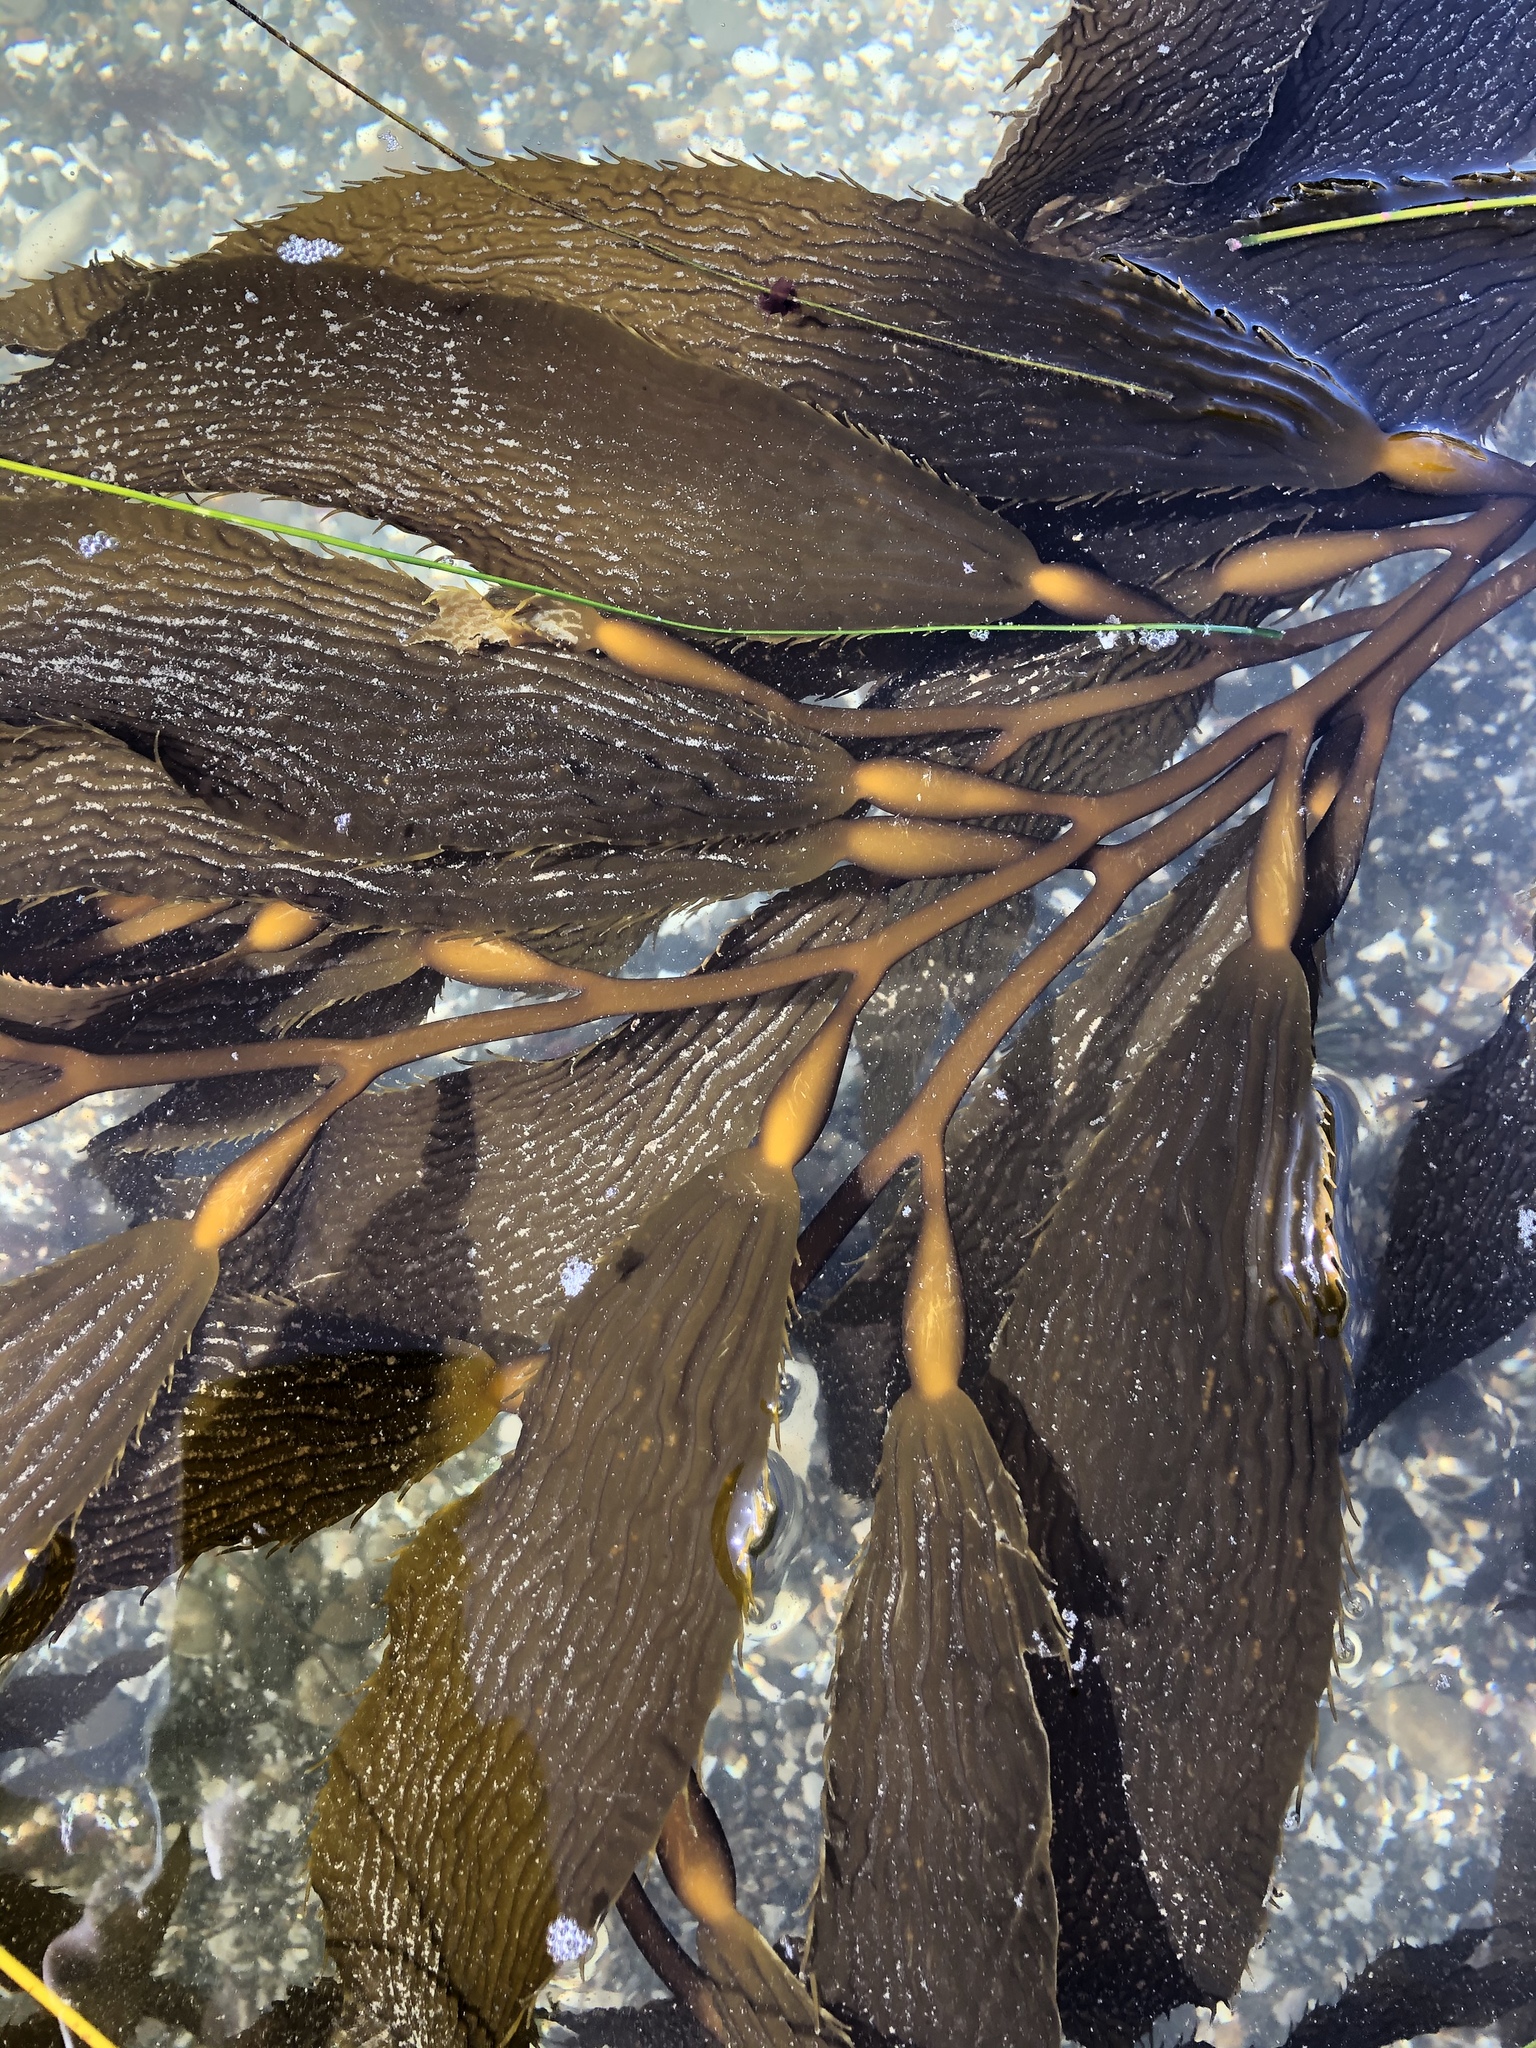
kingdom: Chromista
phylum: Ochrophyta
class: Phaeophyceae
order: Laminariales
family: Laminariaceae
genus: Macrocystis
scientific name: Macrocystis pyrifera
